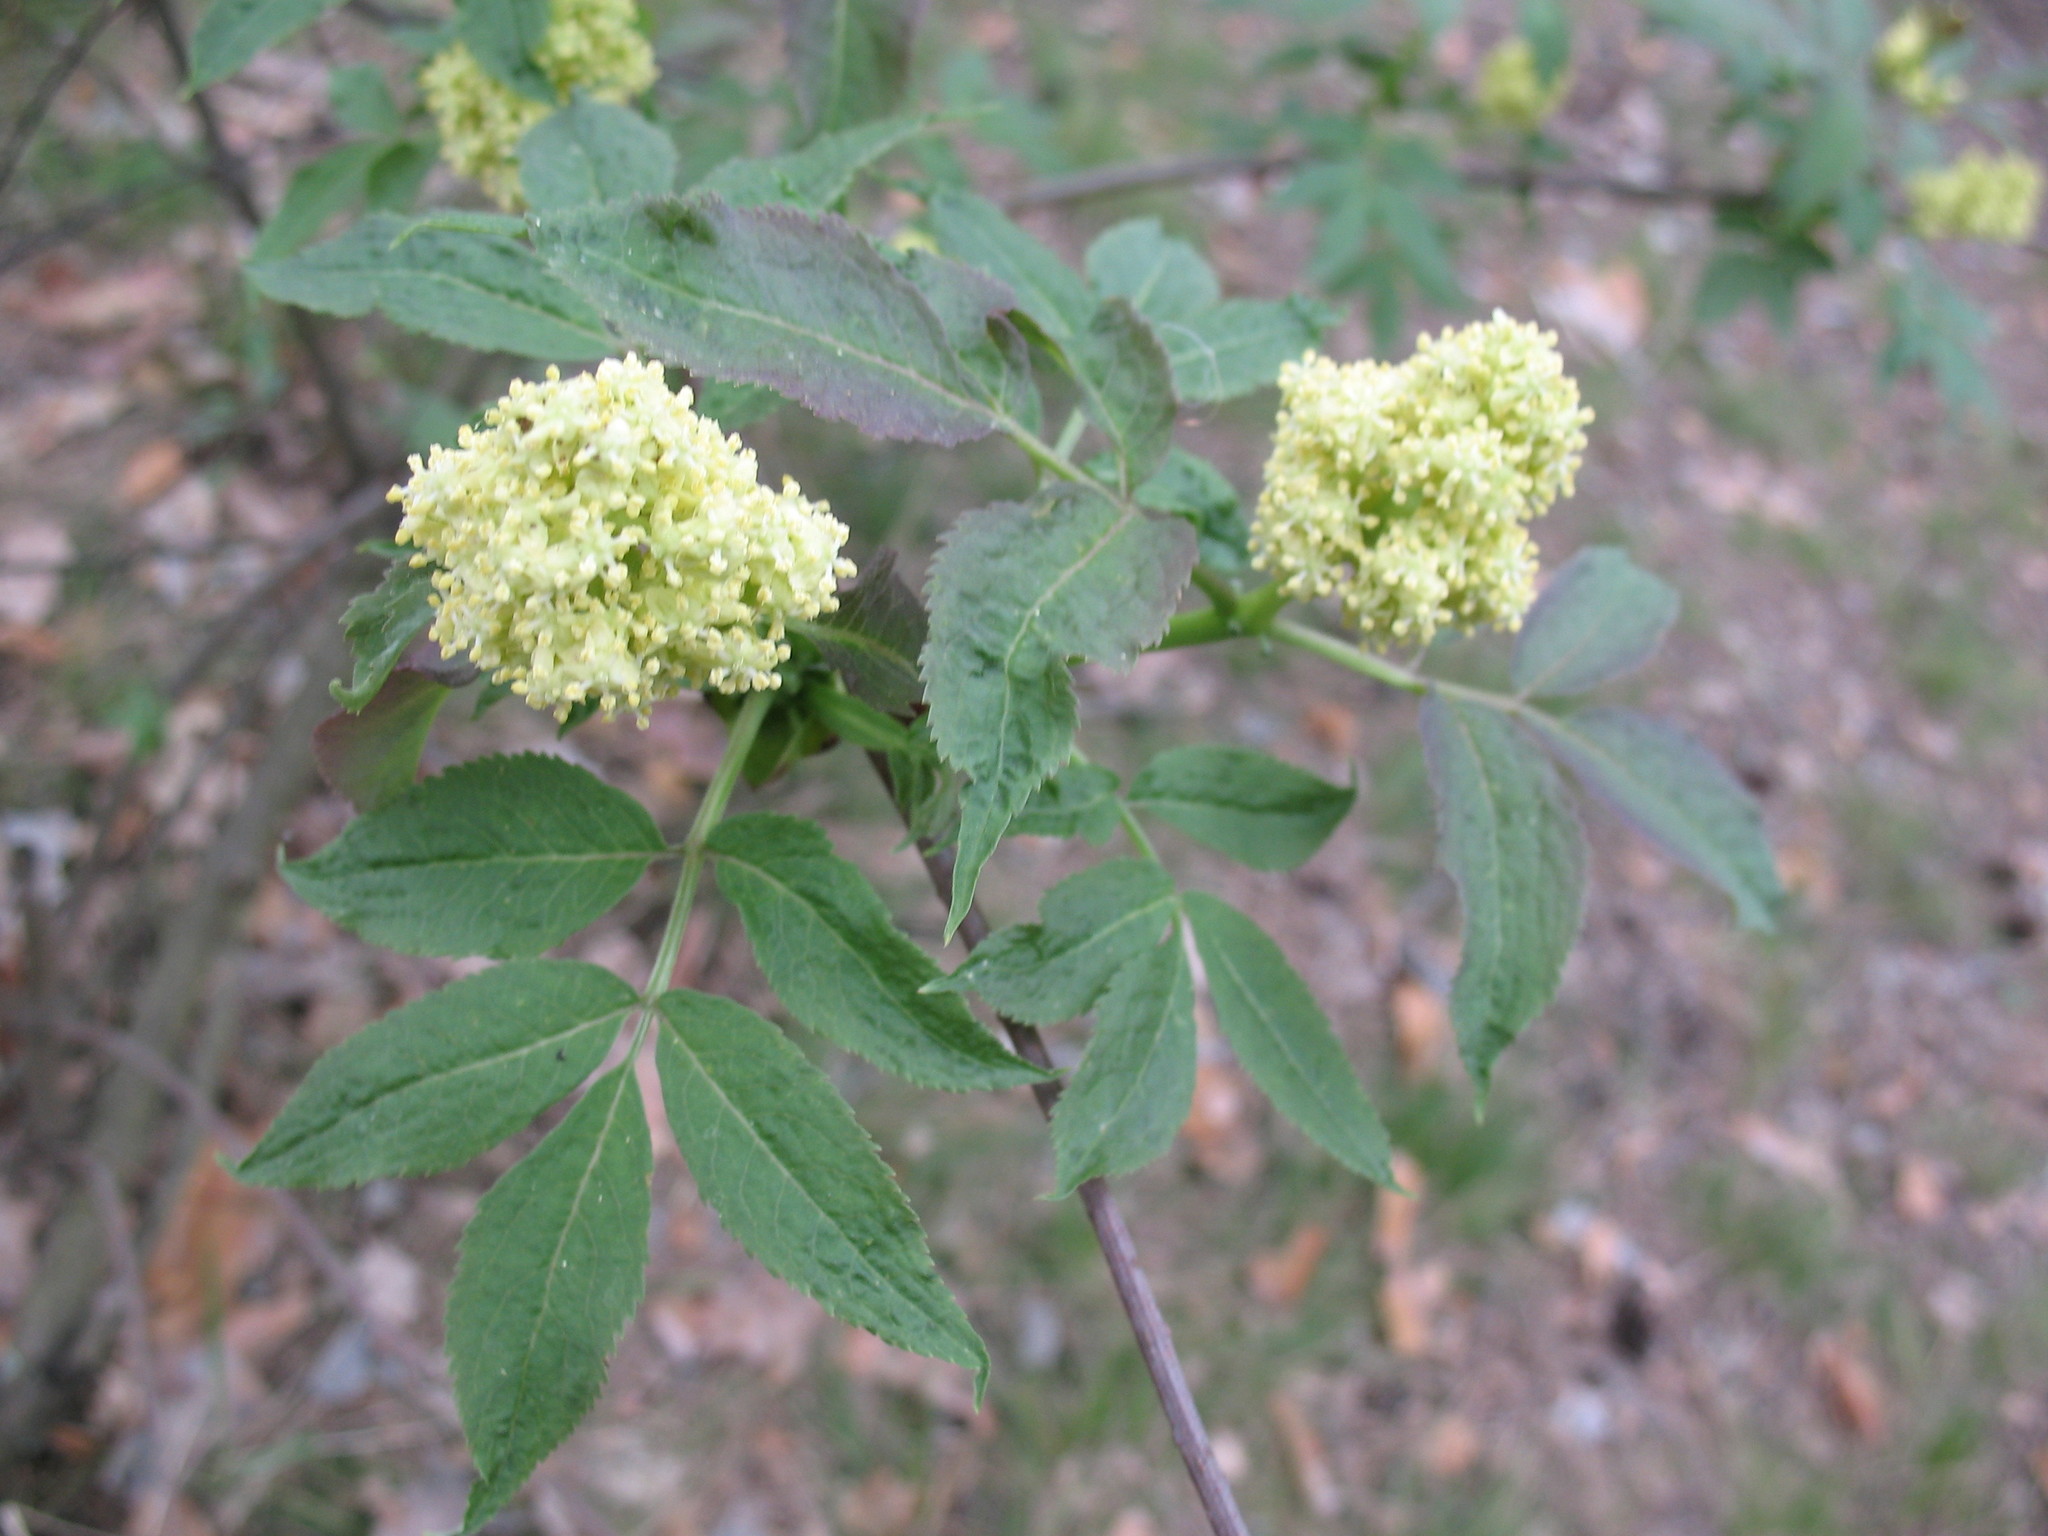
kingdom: Plantae
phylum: Tracheophyta
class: Magnoliopsida
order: Dipsacales
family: Viburnaceae
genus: Sambucus
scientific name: Sambucus racemosa
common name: Red-berried elder
